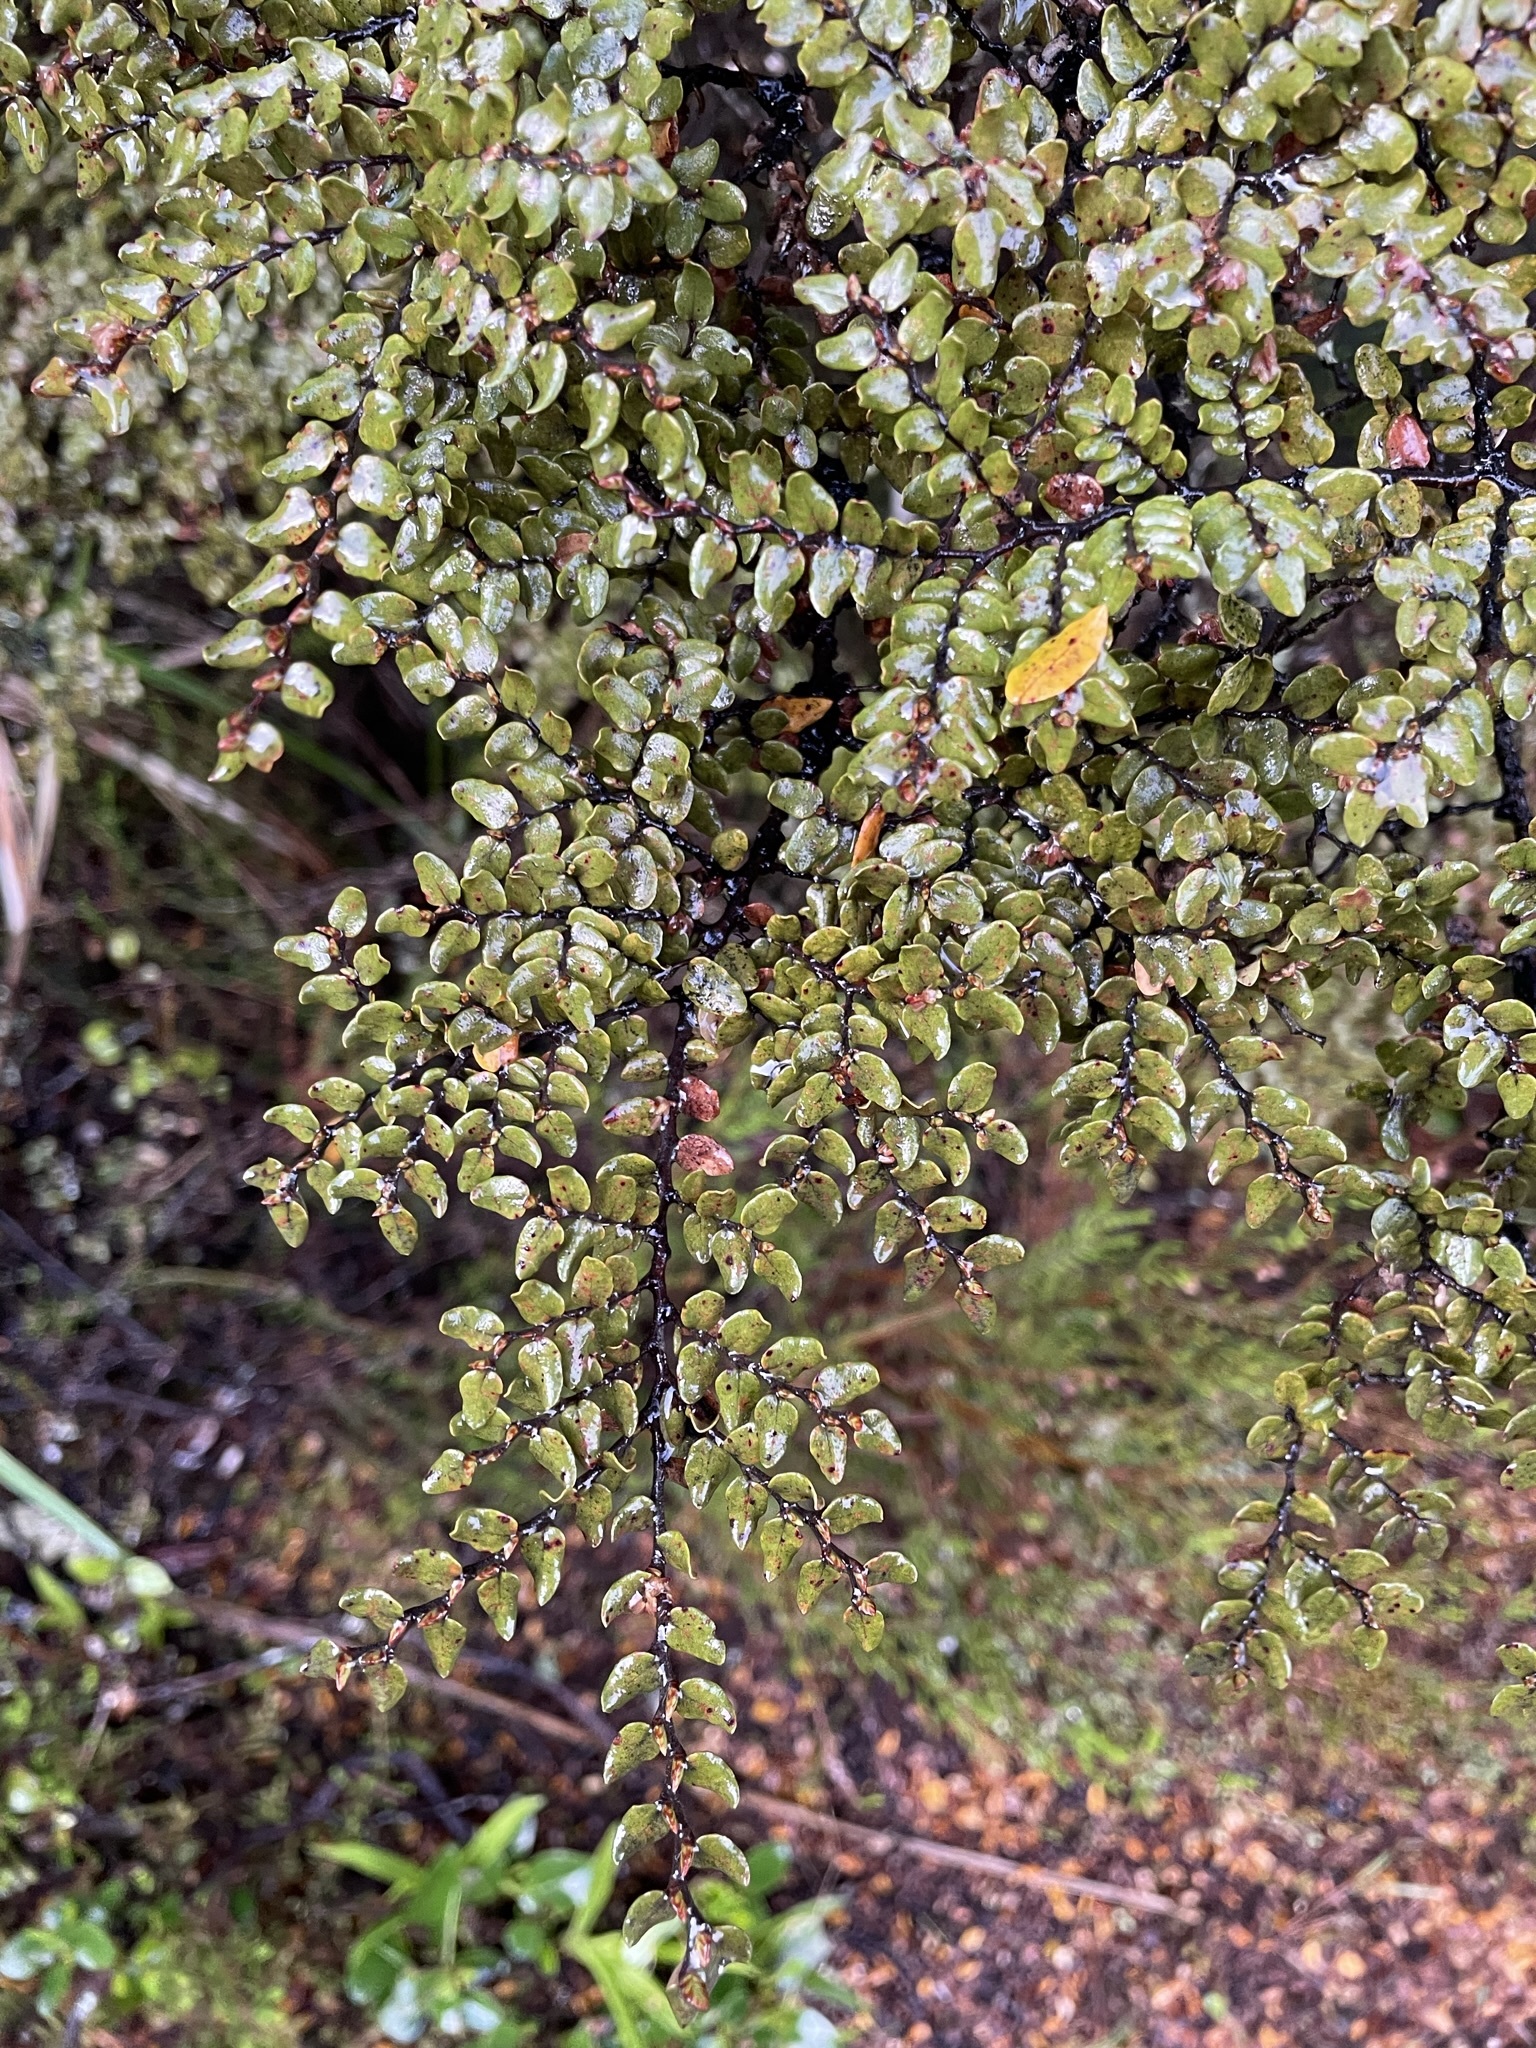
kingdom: Plantae
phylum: Tracheophyta
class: Magnoliopsida
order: Fagales
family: Nothofagaceae
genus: Nothofagus
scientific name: Nothofagus cliffortioides
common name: Mountain beech
